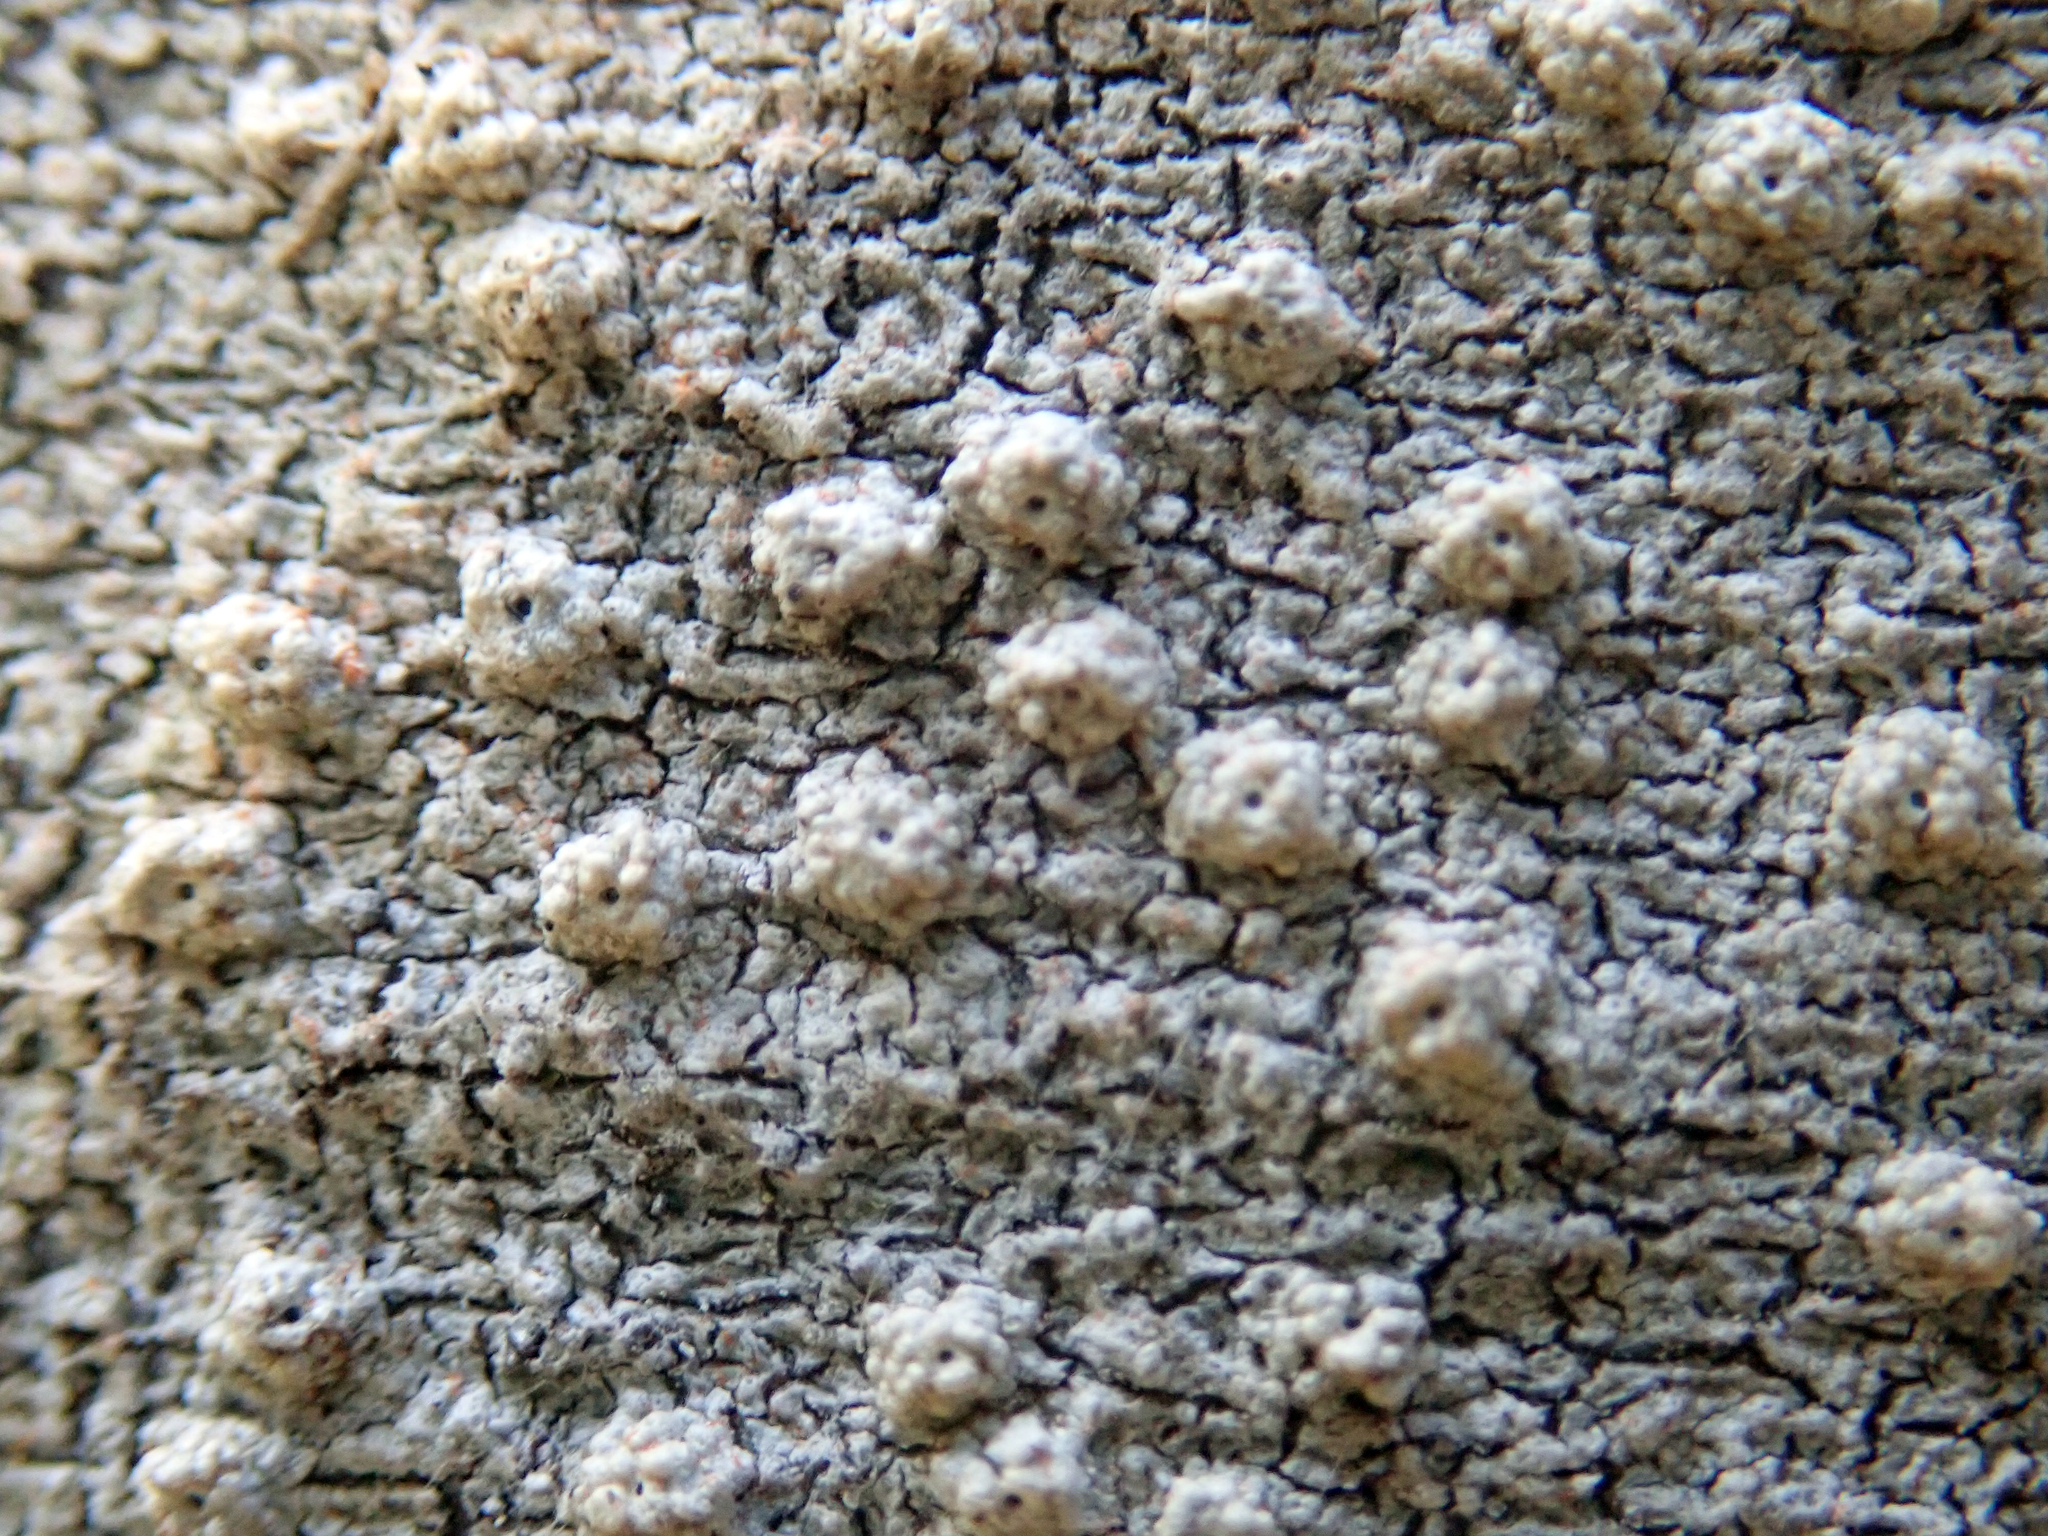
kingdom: Fungi
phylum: Ascomycota
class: Lecanoromycetes
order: Ostropales
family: Graphidaceae
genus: Ocellularia
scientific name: Ocellularia
